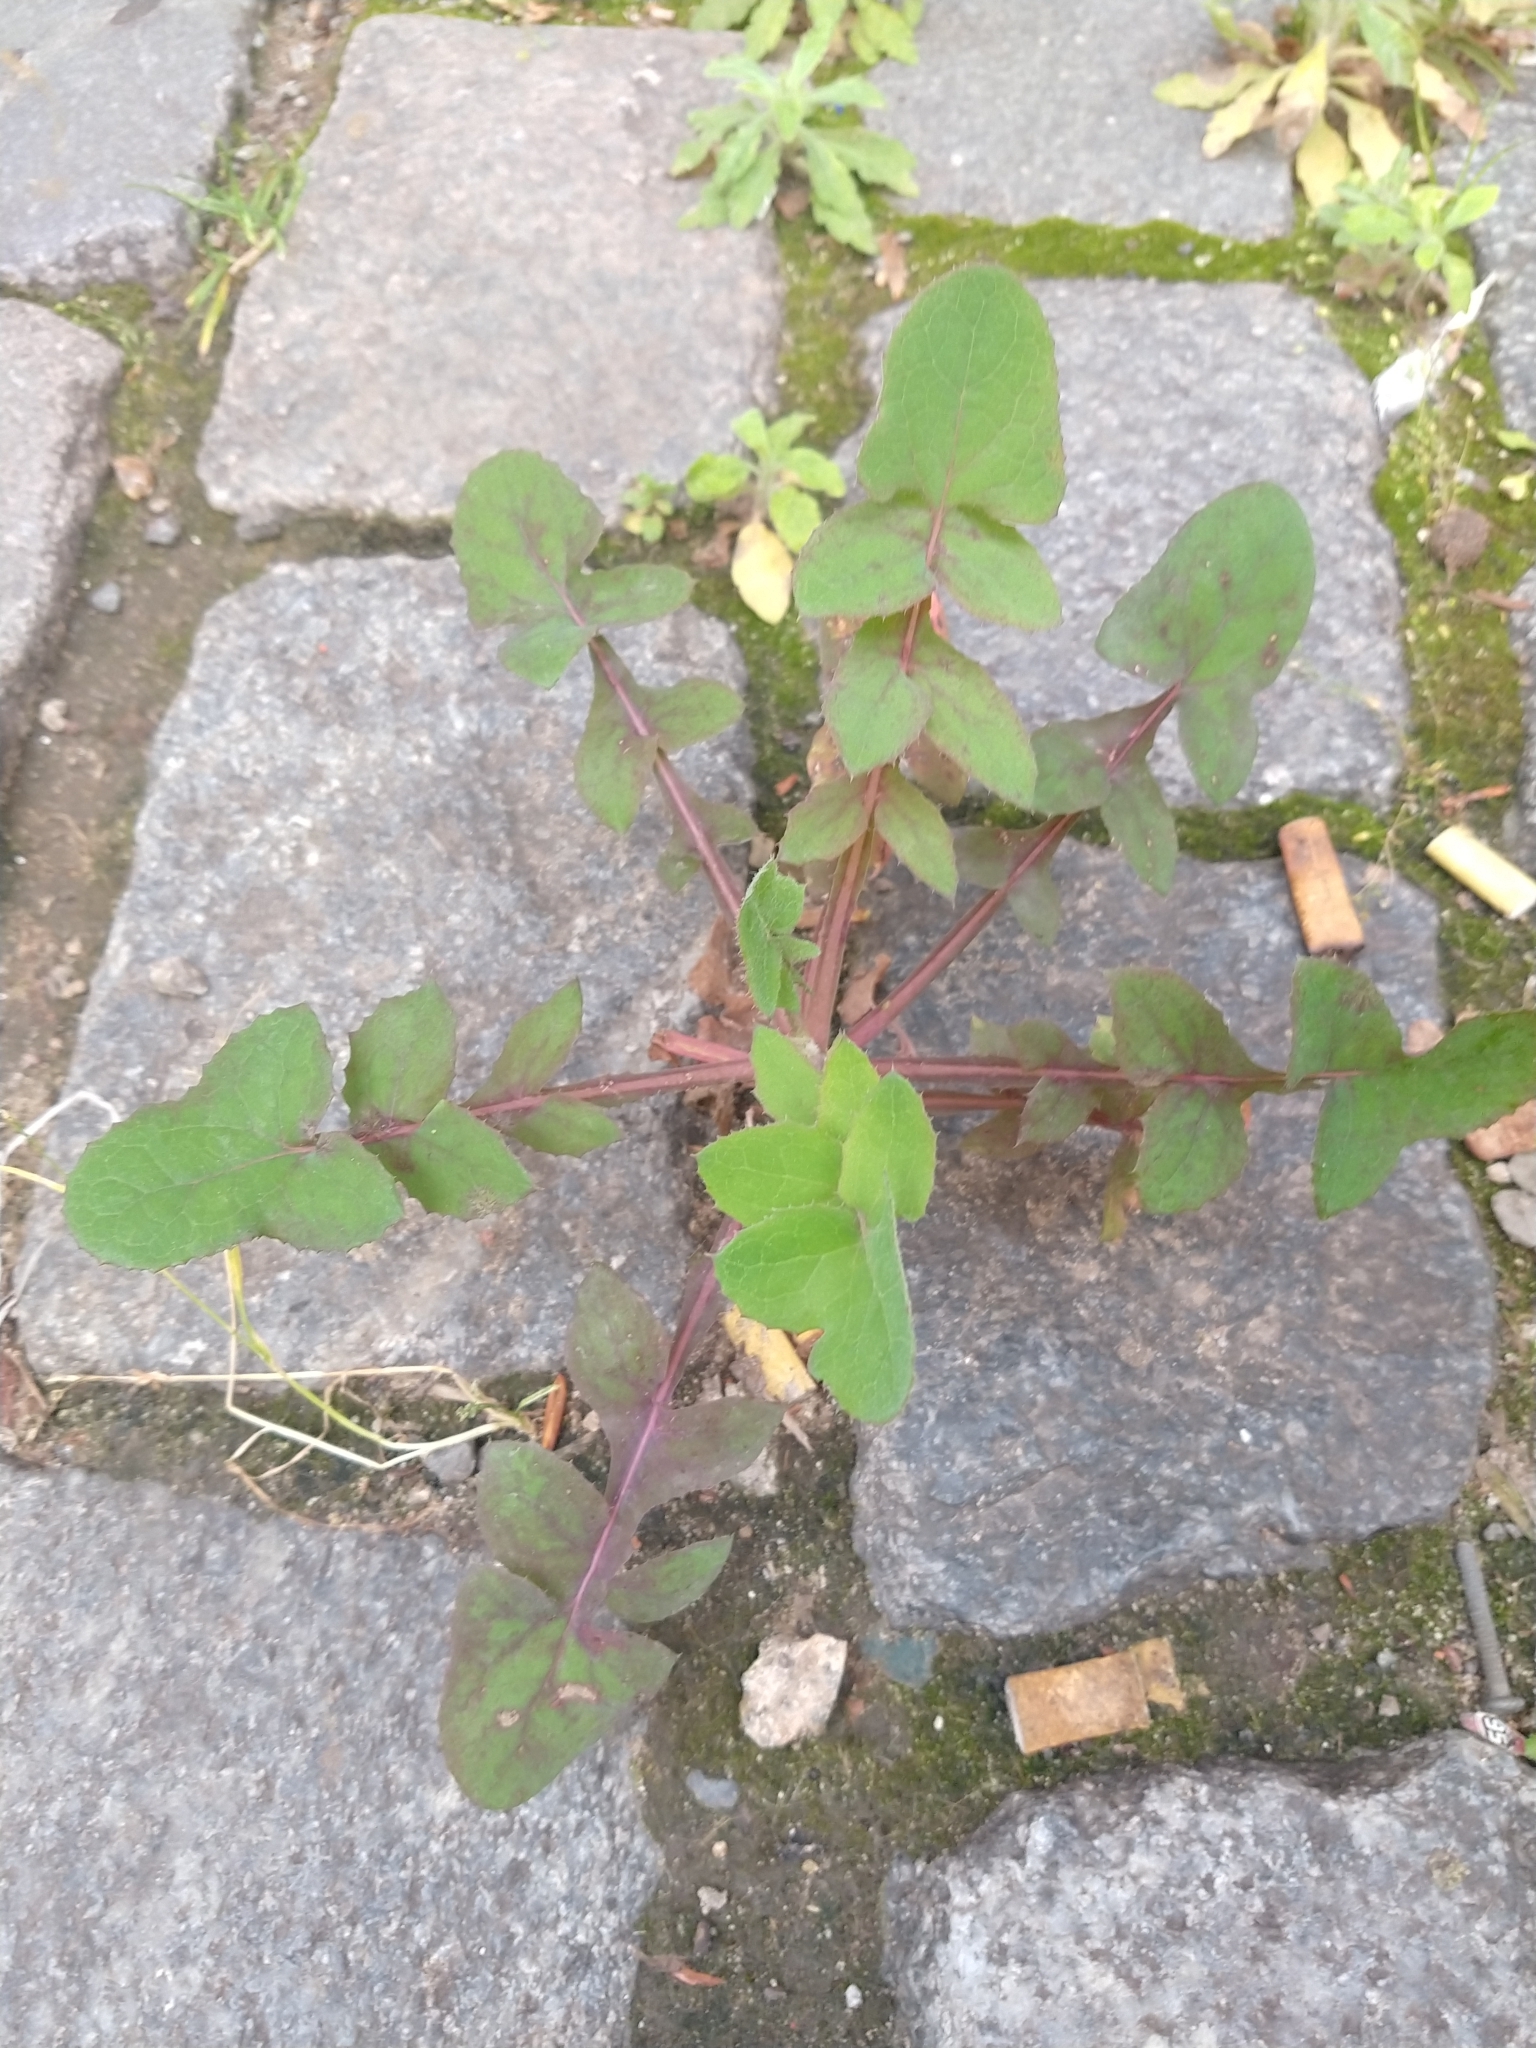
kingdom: Plantae
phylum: Tracheophyta
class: Magnoliopsida
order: Asterales
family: Asteraceae
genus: Sonchus
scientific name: Sonchus oleraceus
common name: Common sowthistle
